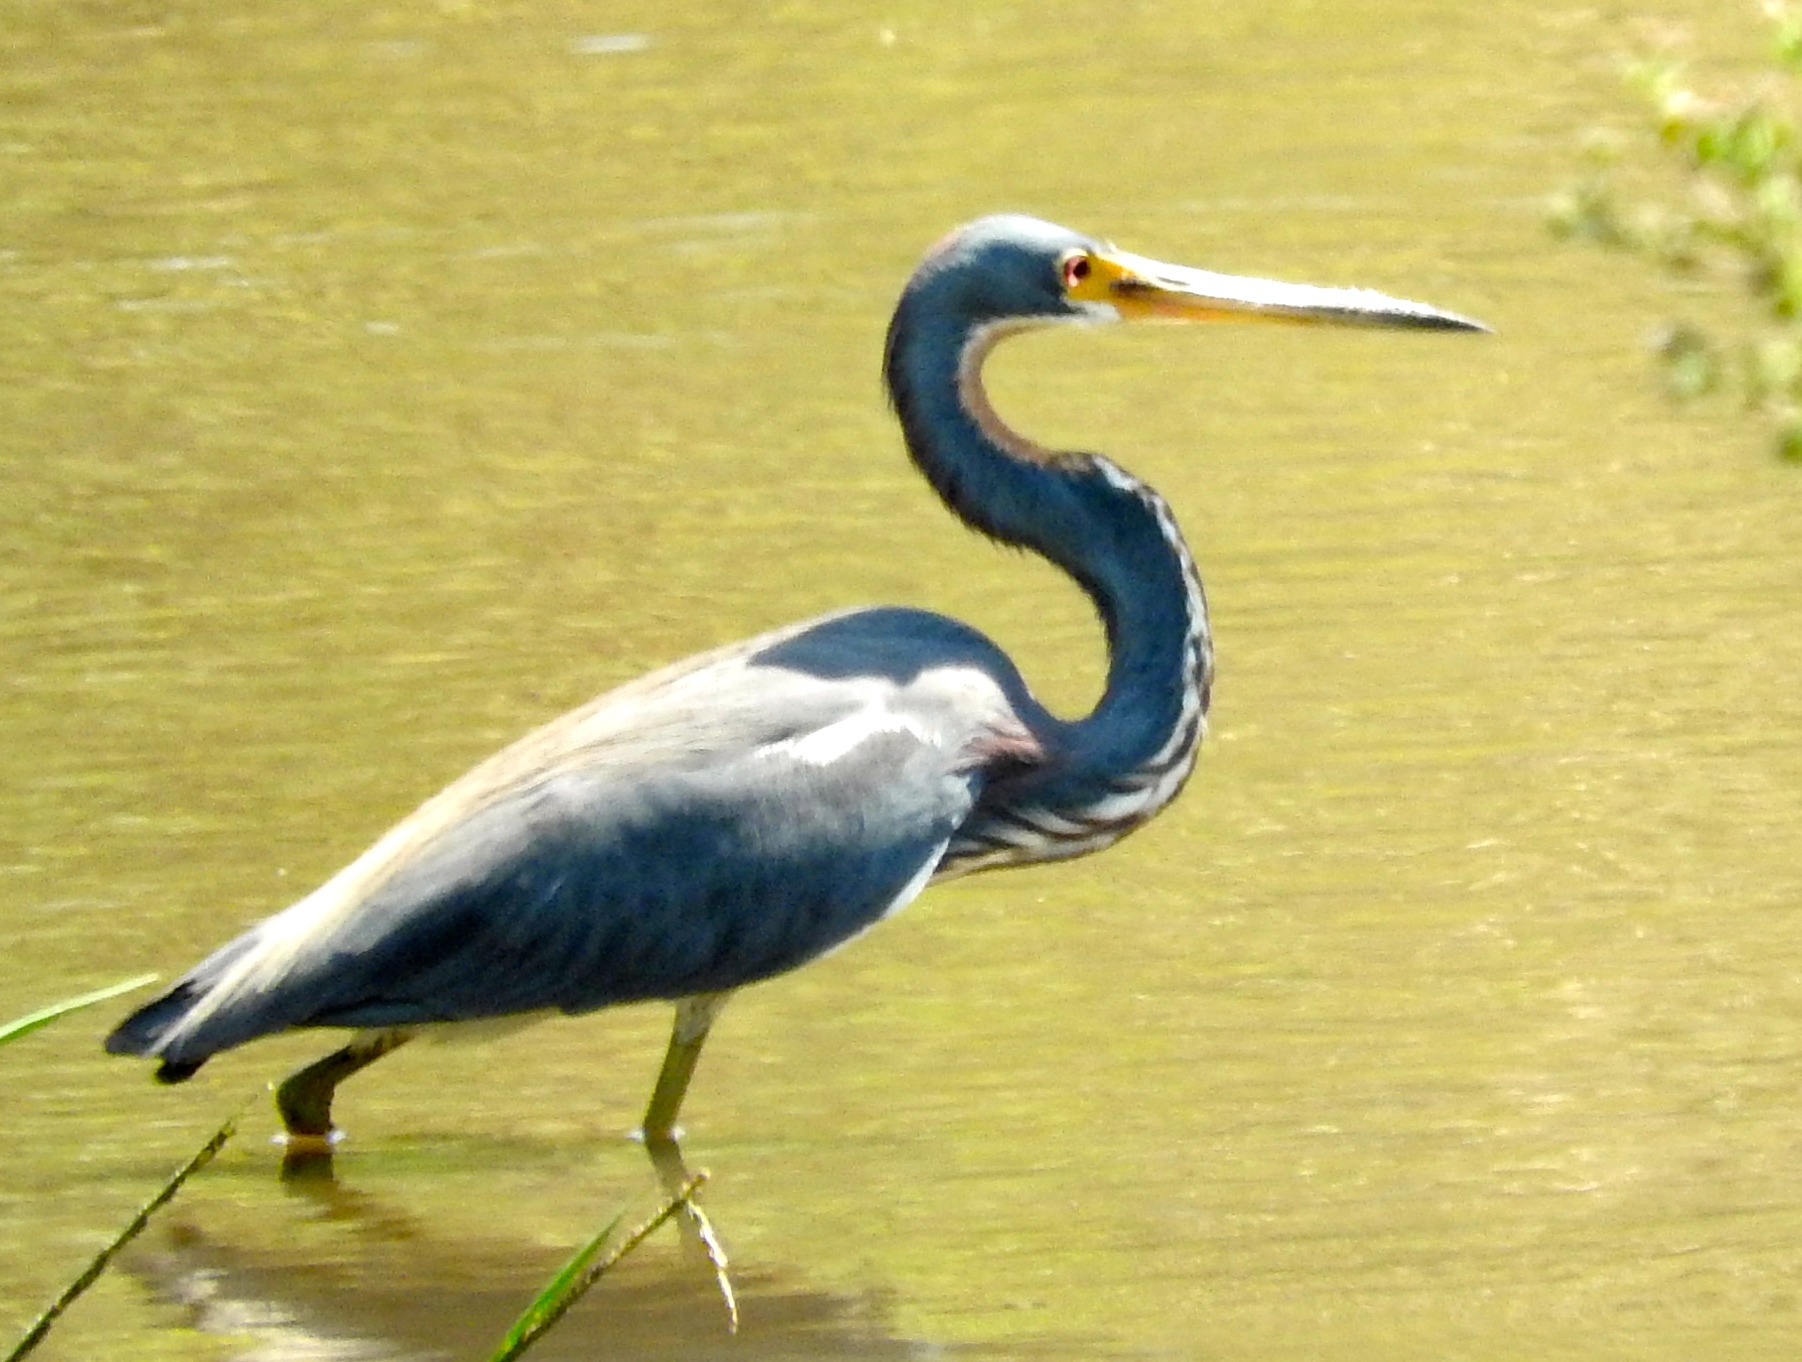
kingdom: Animalia
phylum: Chordata
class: Aves
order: Pelecaniformes
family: Ardeidae
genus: Egretta
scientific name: Egretta tricolor
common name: Tricolored heron
